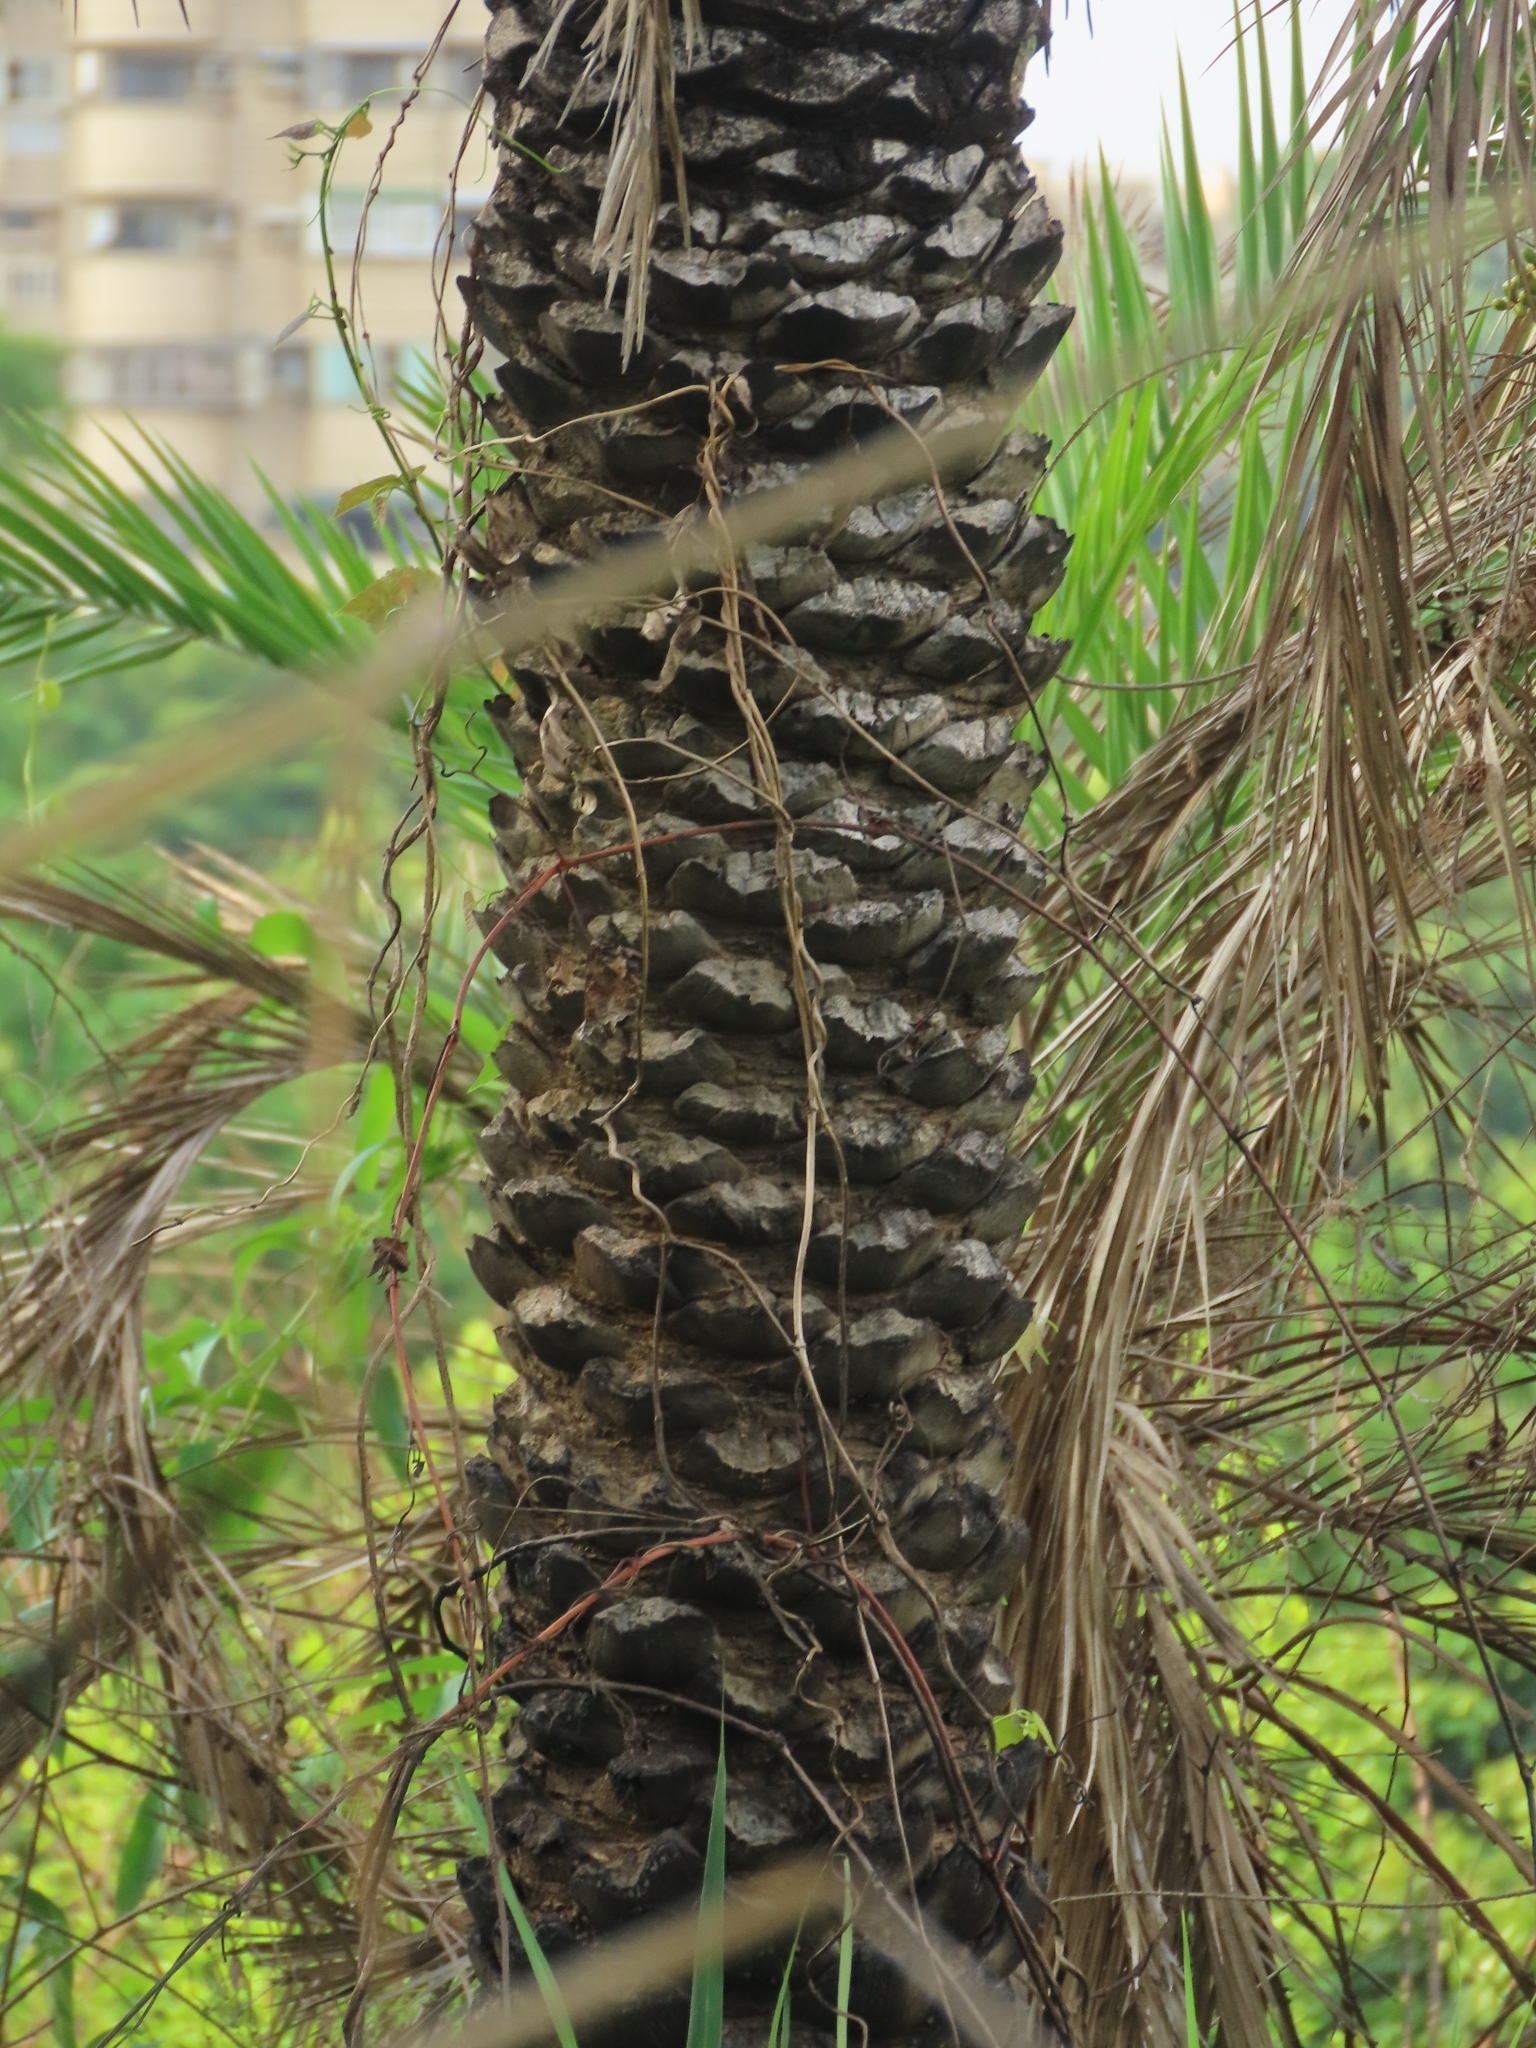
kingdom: Plantae
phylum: Tracheophyta
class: Liliopsida
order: Arecales
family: Arecaceae
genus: Phoenix
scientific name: Phoenix loureiroi
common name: Loureiro's palm
